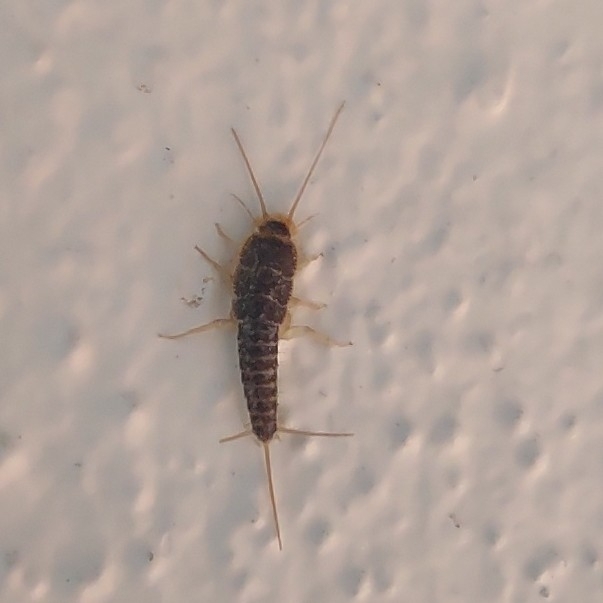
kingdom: Animalia
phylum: Arthropoda
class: Insecta
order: Zygentoma
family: Lepismatidae
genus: Ctenolepisma
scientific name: Ctenolepisma longicaudatum
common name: Silverfish
